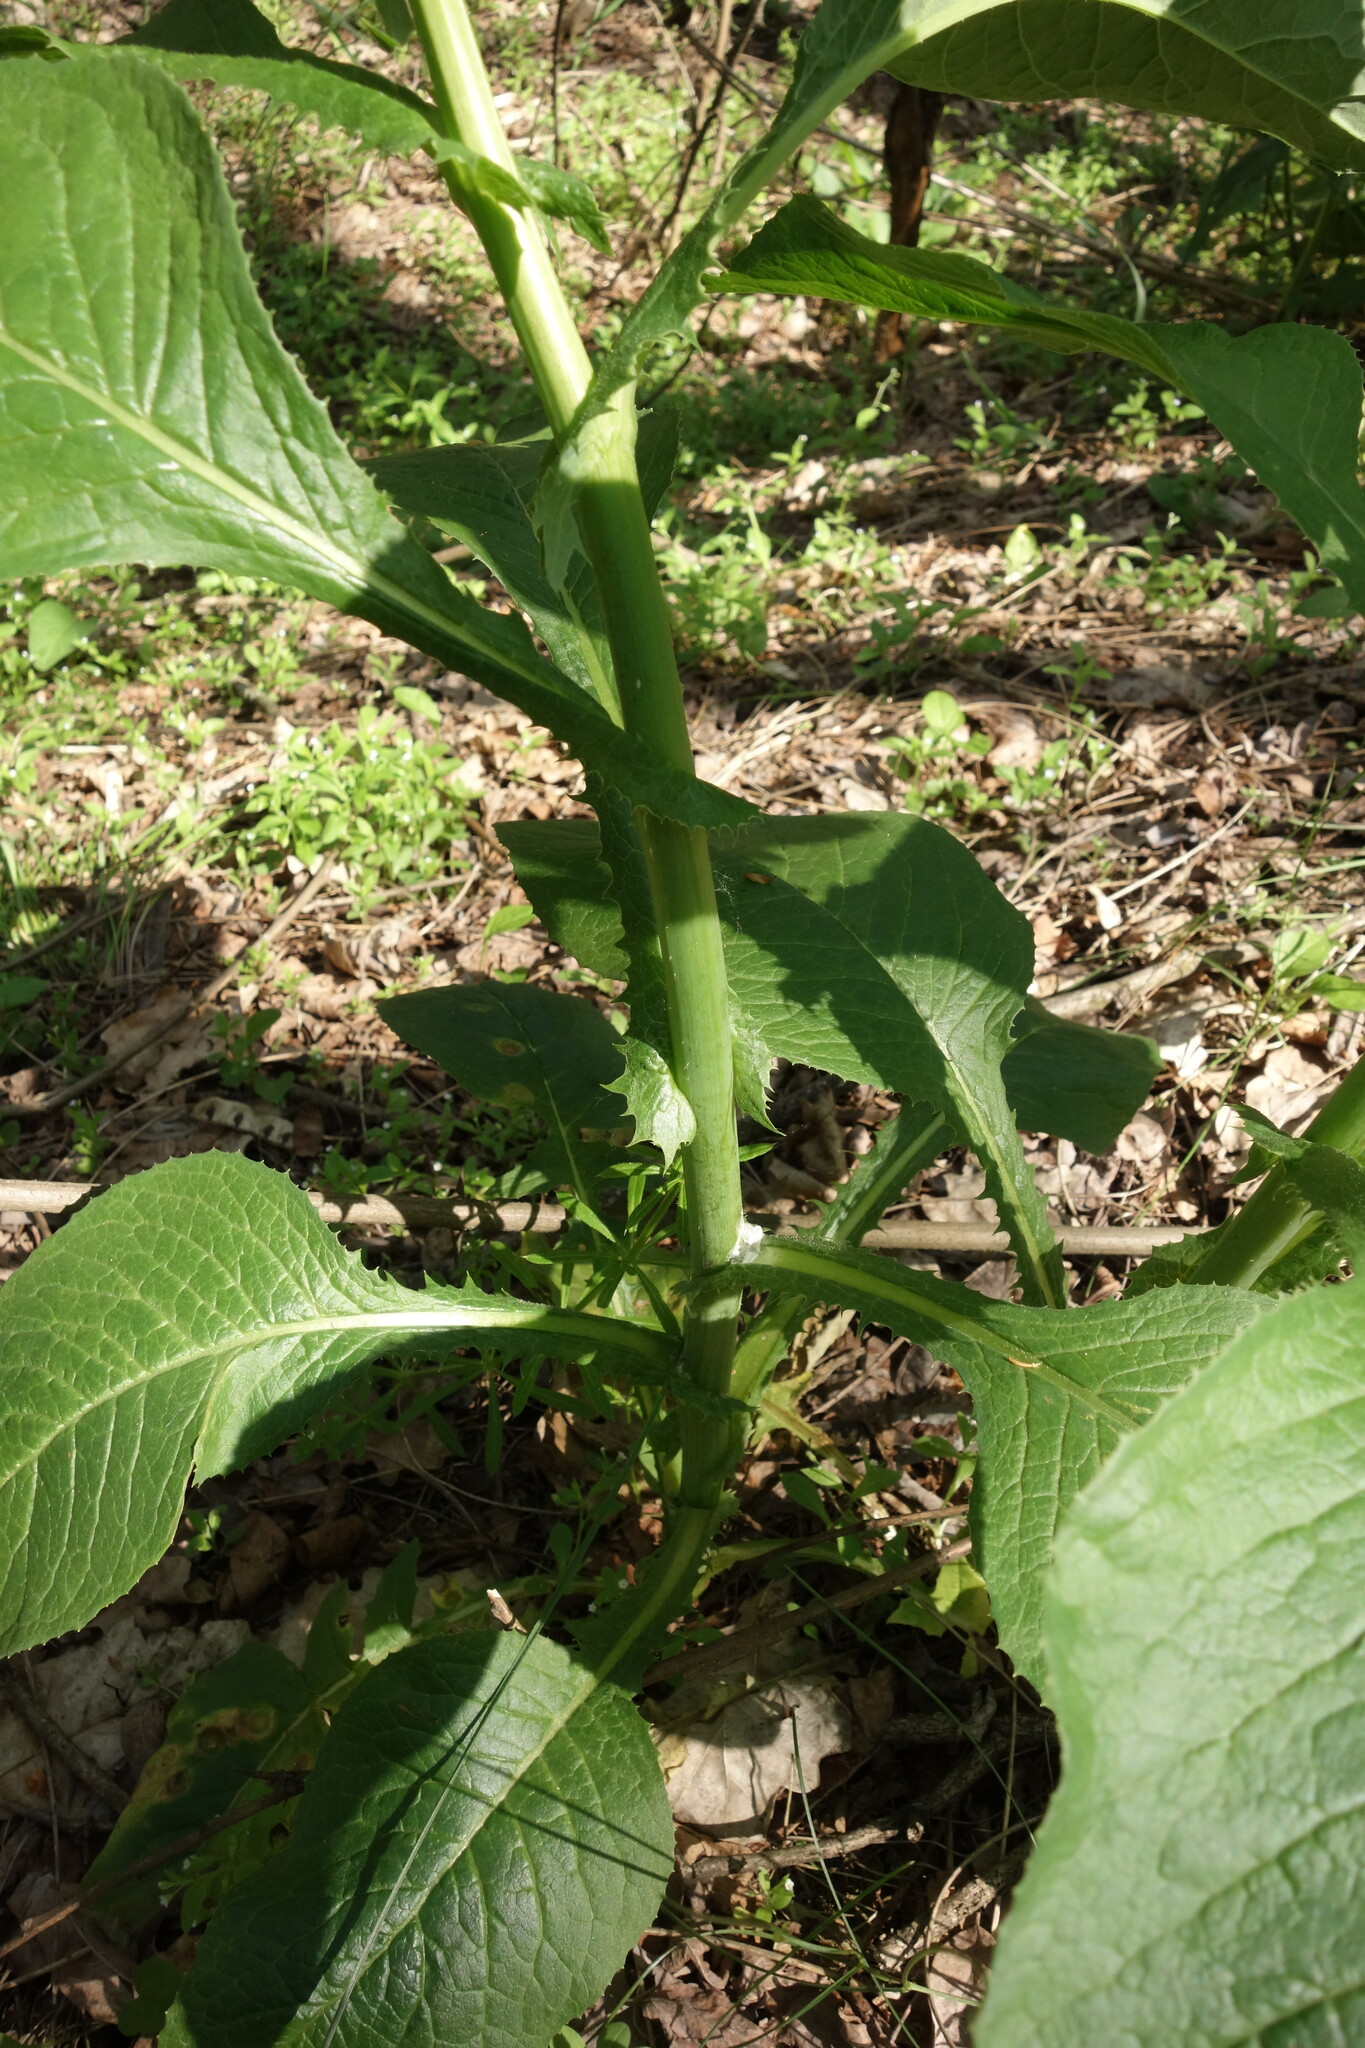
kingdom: Plantae
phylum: Tracheophyta
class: Magnoliopsida
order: Asterales
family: Asteraceae
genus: Lactuca
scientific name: Lactuca quercina
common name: Wild lettuce
